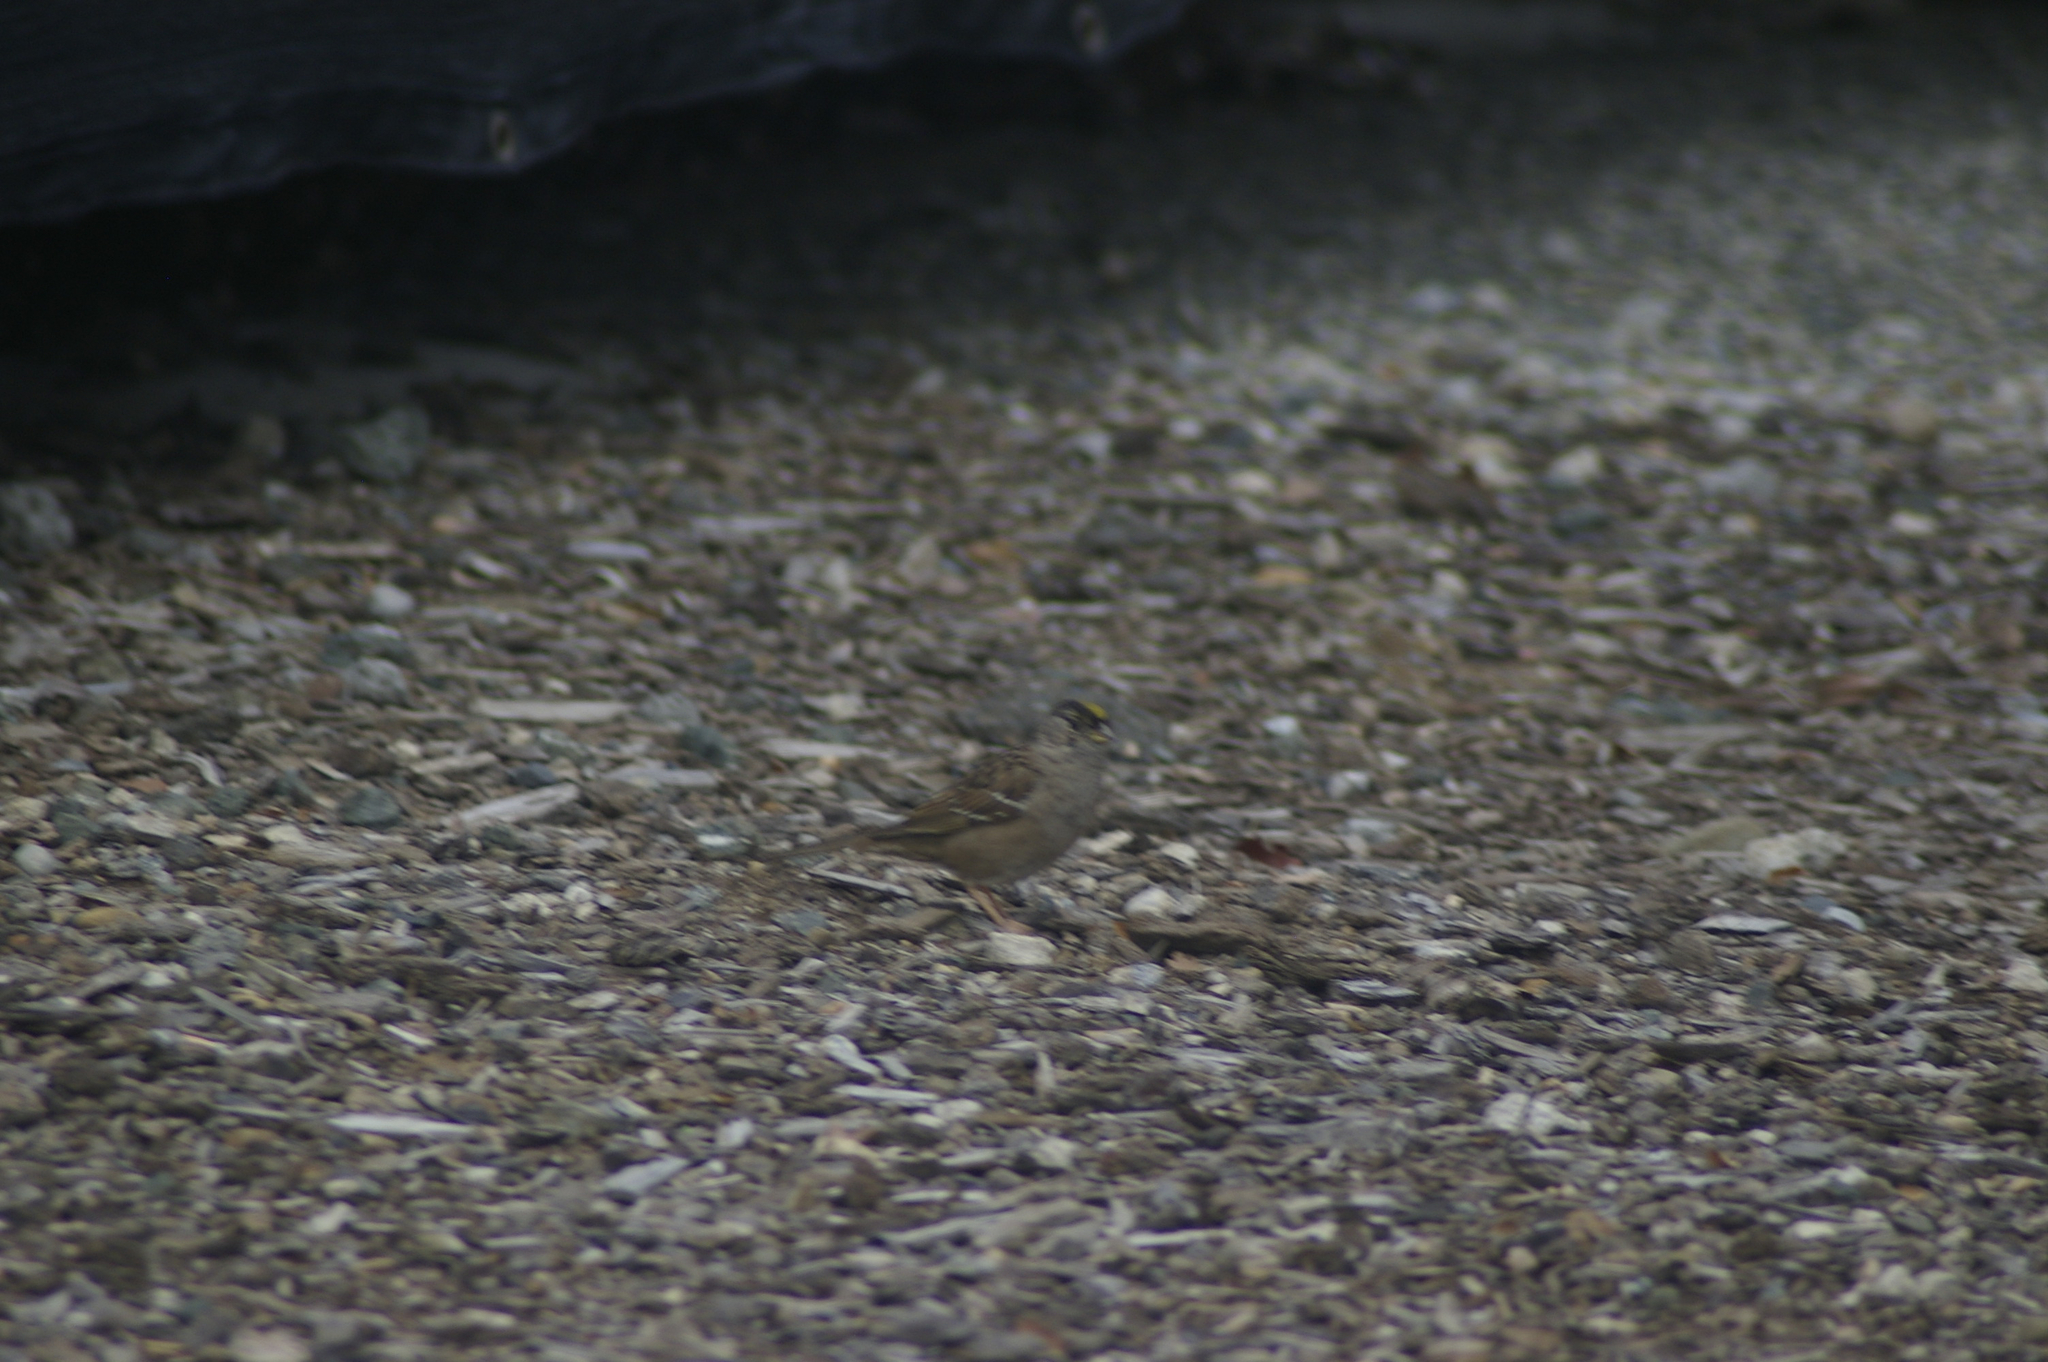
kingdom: Animalia
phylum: Chordata
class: Aves
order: Passeriformes
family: Passerellidae
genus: Zonotrichia
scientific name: Zonotrichia atricapilla
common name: Golden-crowned sparrow
